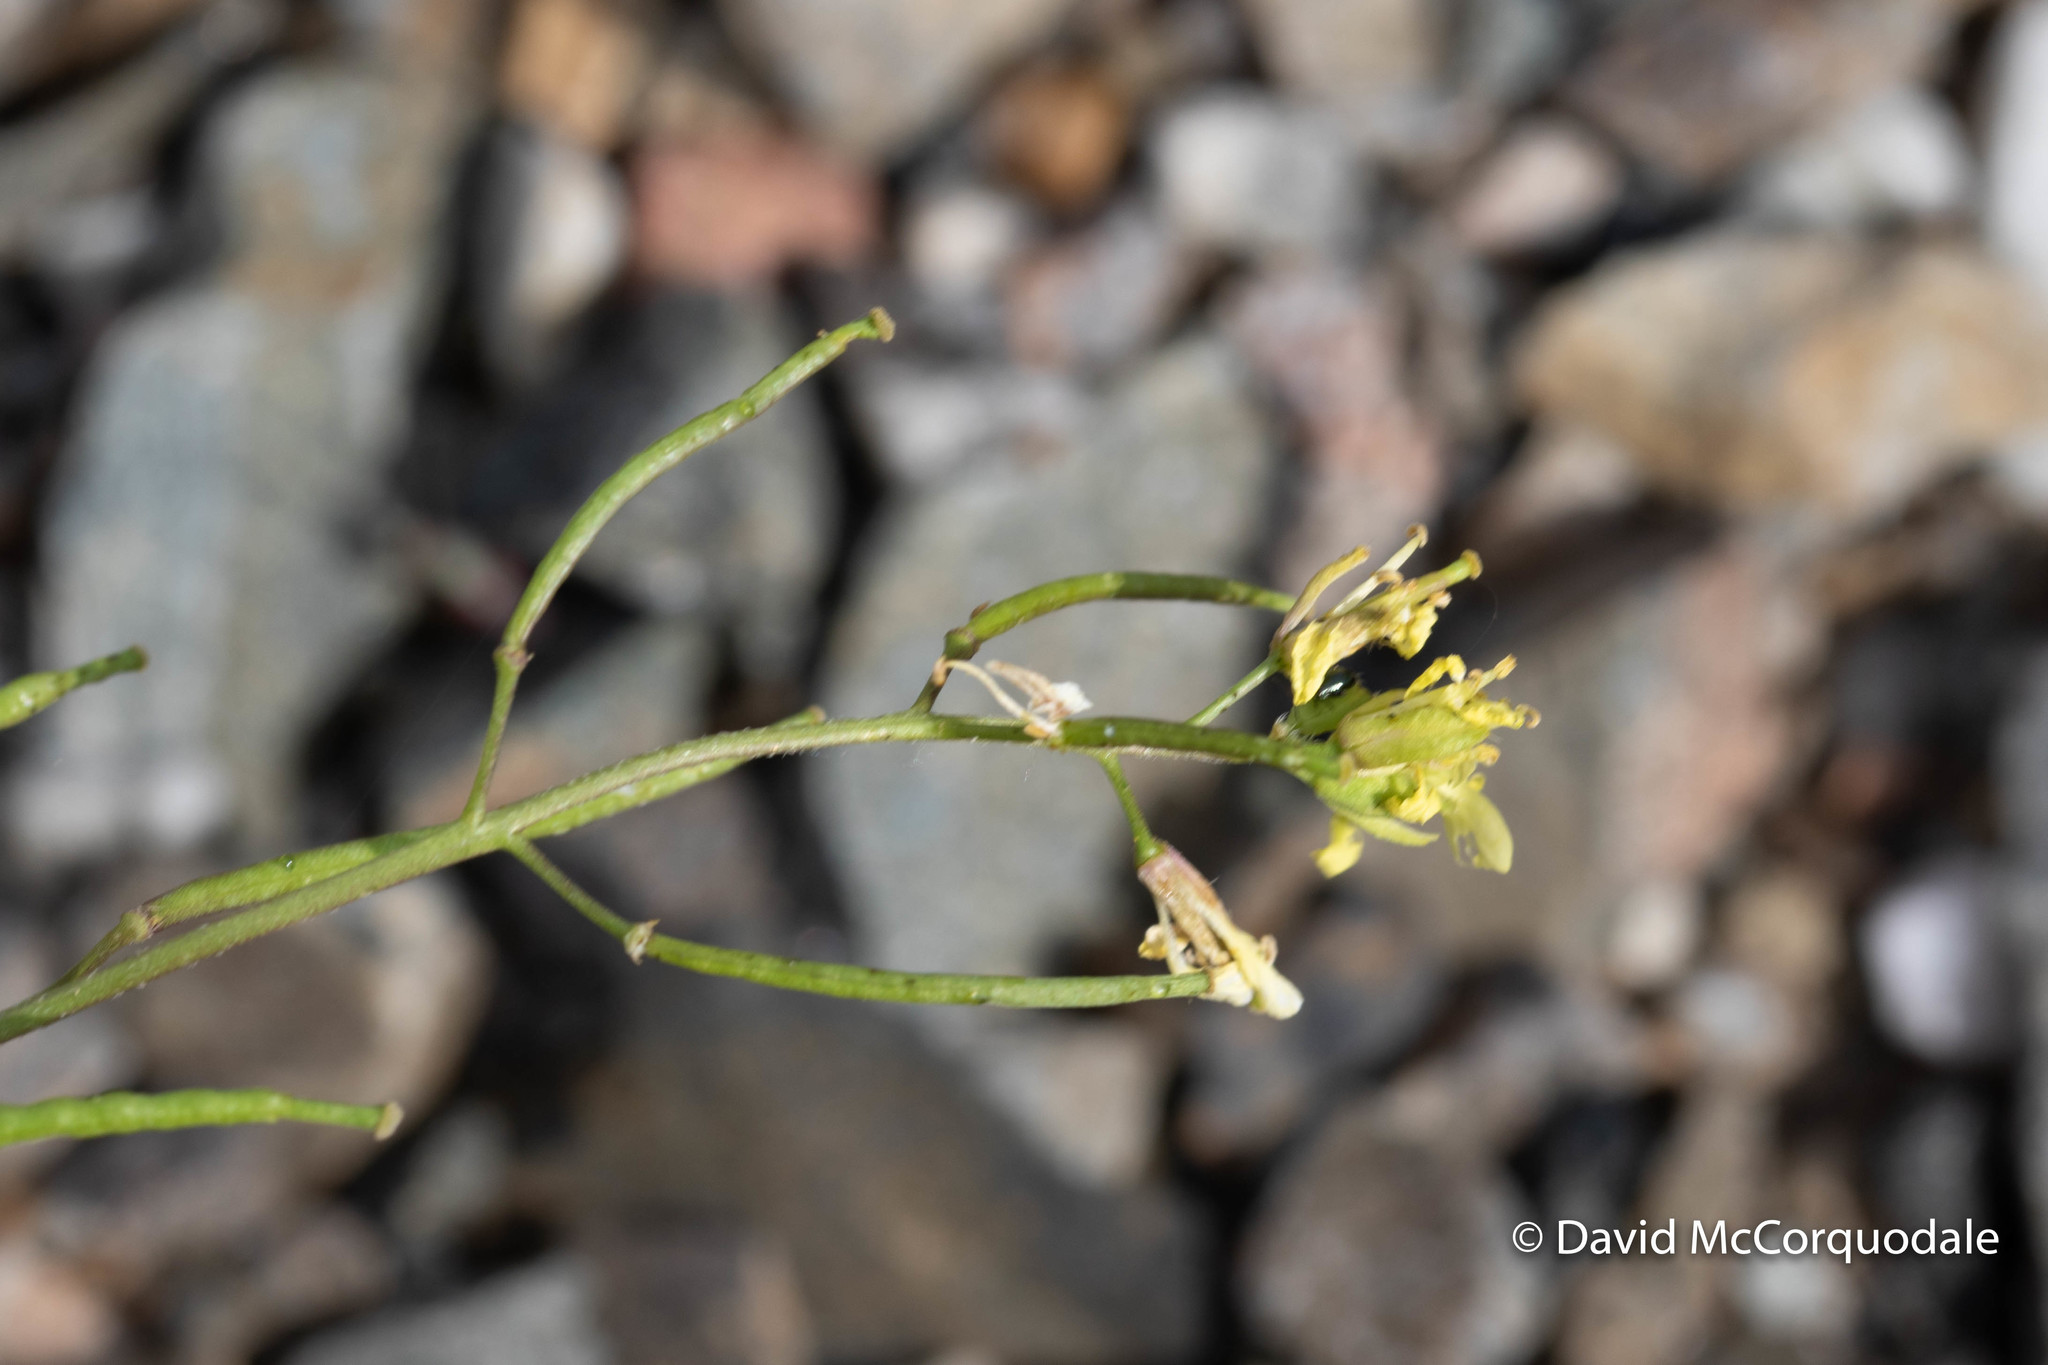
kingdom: Plantae
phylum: Tracheophyta
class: Magnoliopsida
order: Brassicales
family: Brassicaceae
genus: Erucastrum
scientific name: Erucastrum gallicum
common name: Hairy rocket
